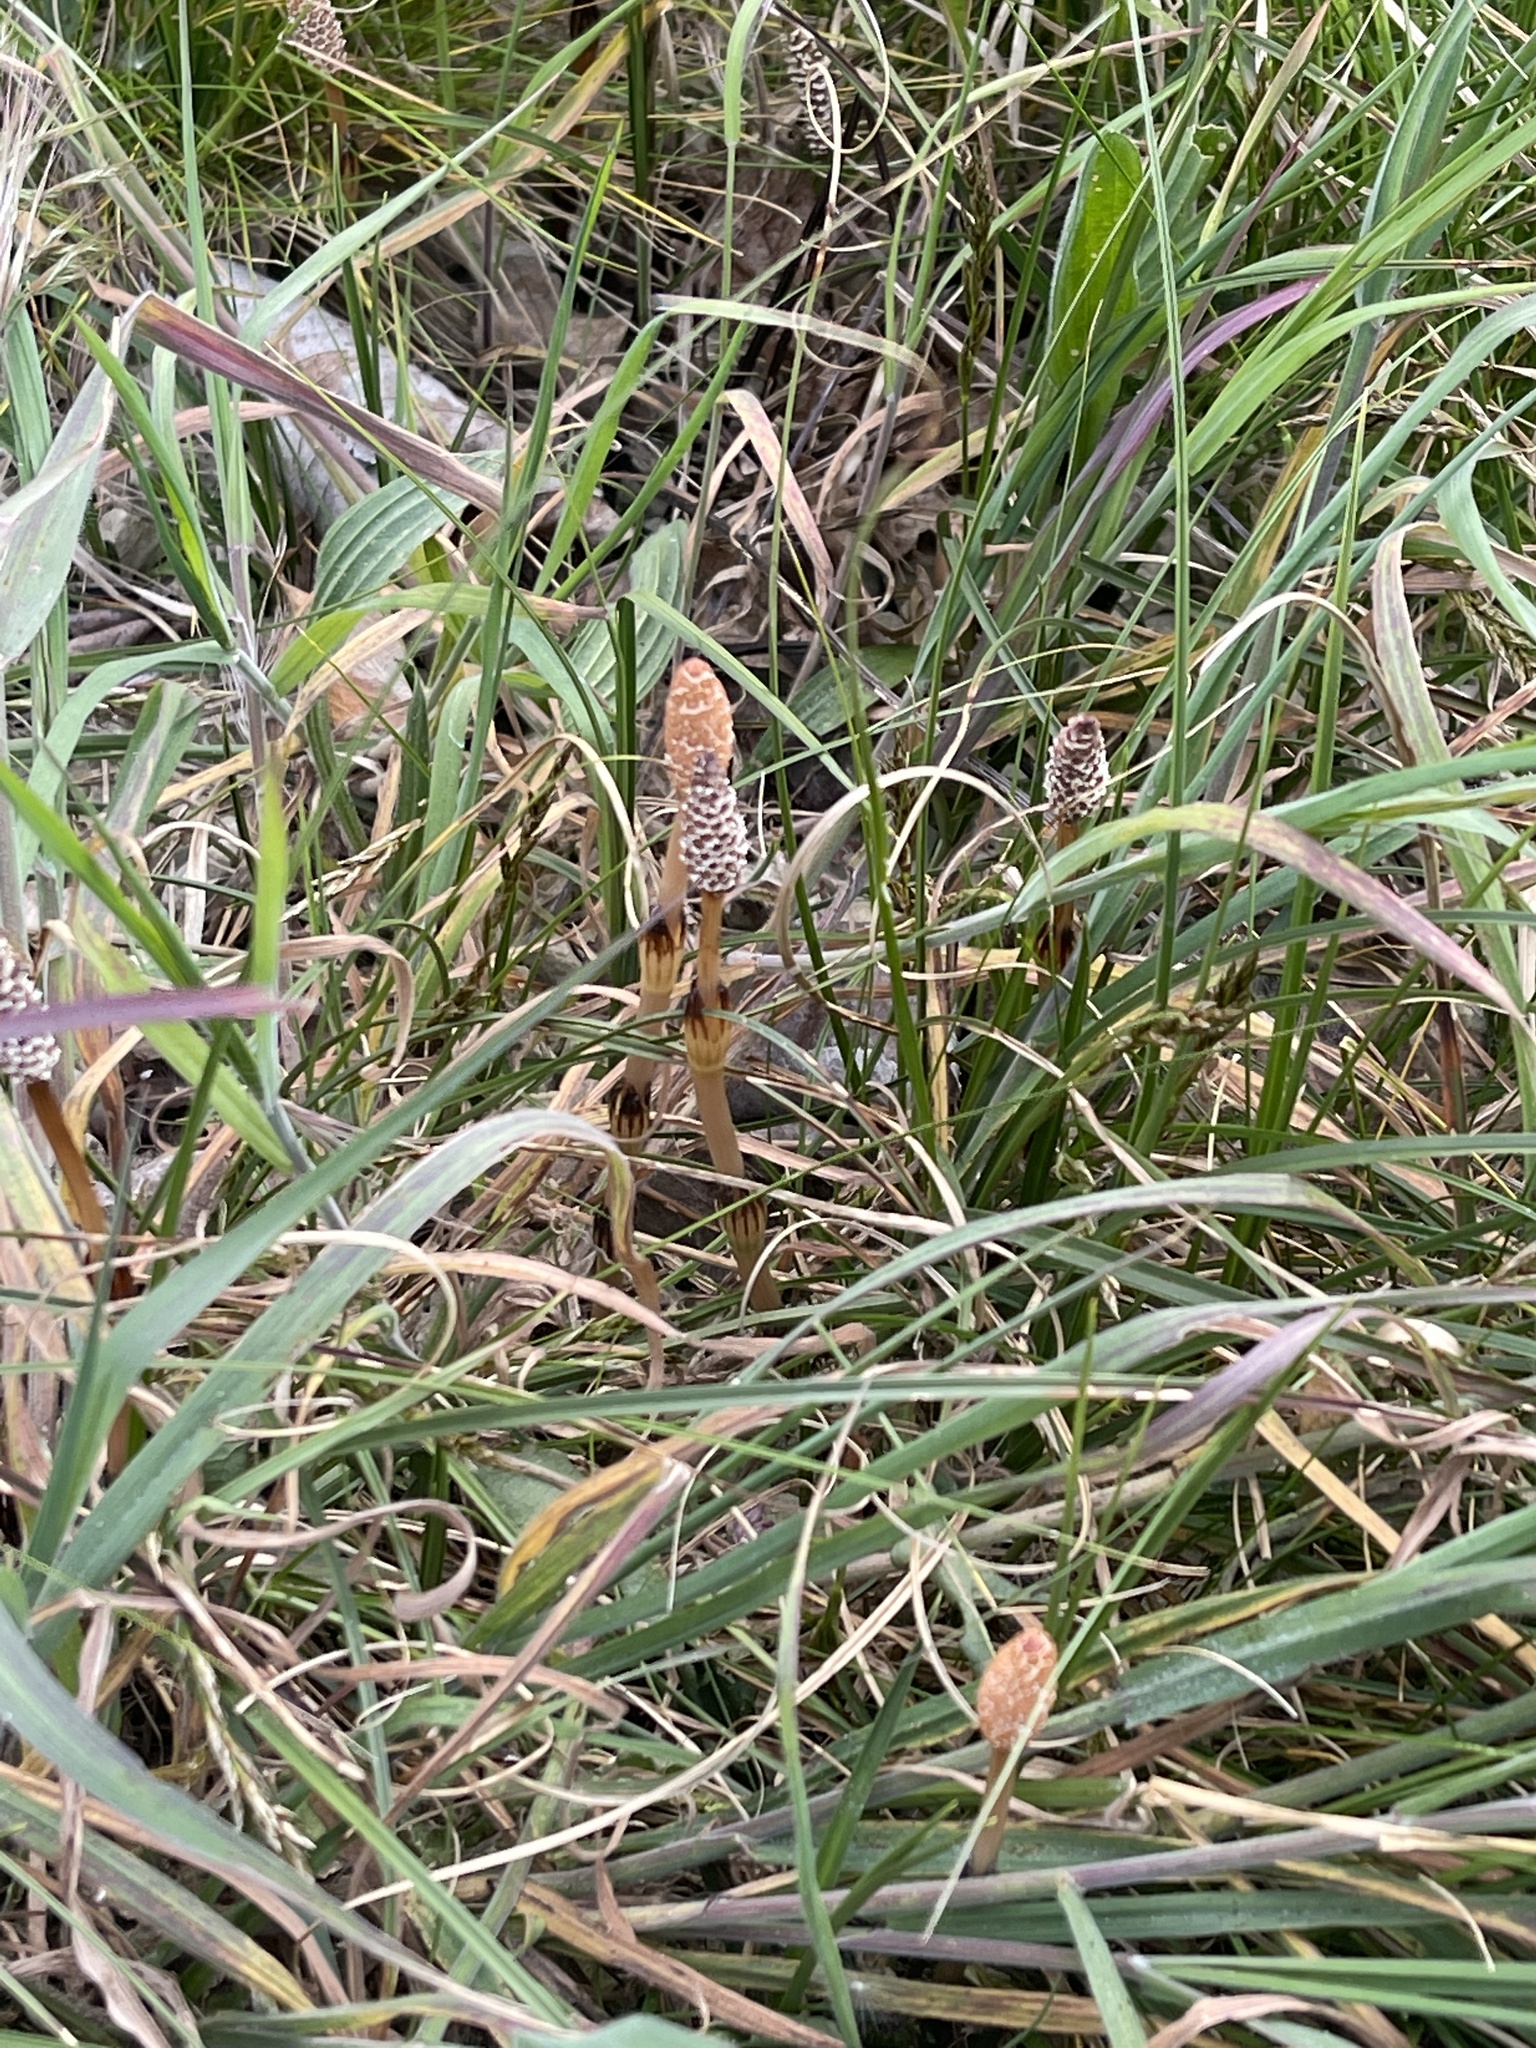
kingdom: Plantae
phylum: Tracheophyta
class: Polypodiopsida
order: Equisetales
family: Equisetaceae
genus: Equisetum
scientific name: Equisetum arvense
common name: Field horsetail
